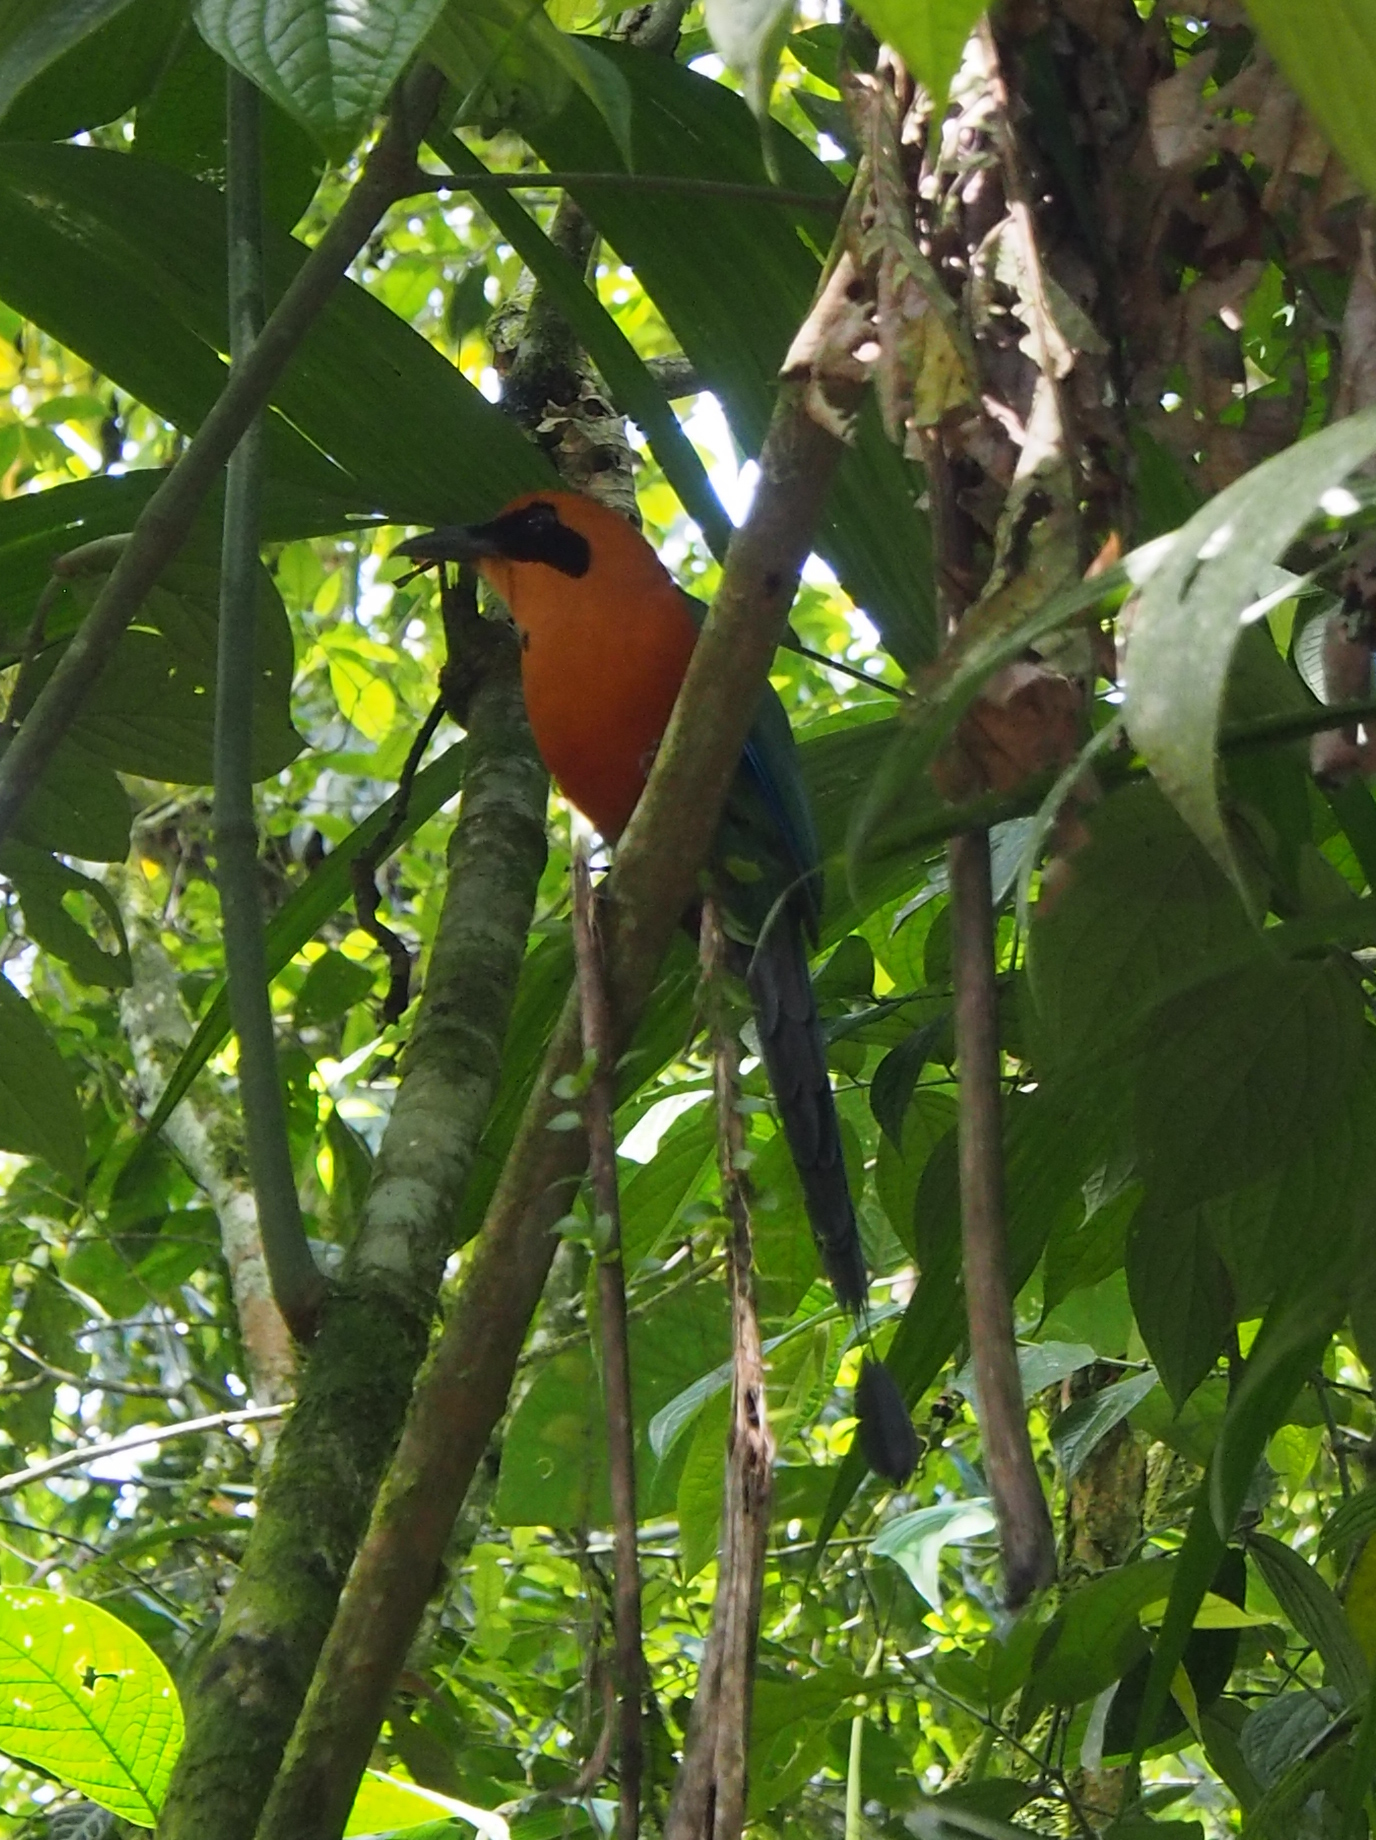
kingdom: Animalia
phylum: Chordata
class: Aves
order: Coraciiformes
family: Momotidae
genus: Baryphthengus
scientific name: Baryphthengus martii
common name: Rufous motmot
